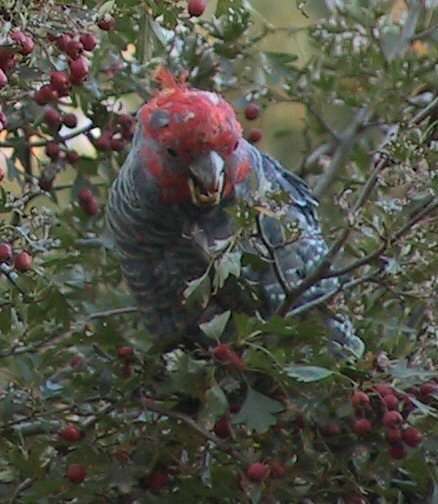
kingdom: Animalia
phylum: Chordata
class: Aves
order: Psittaciformes
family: Psittacidae
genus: Callocephalon
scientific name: Callocephalon fimbriatum
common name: Gang-gang cockatoo
